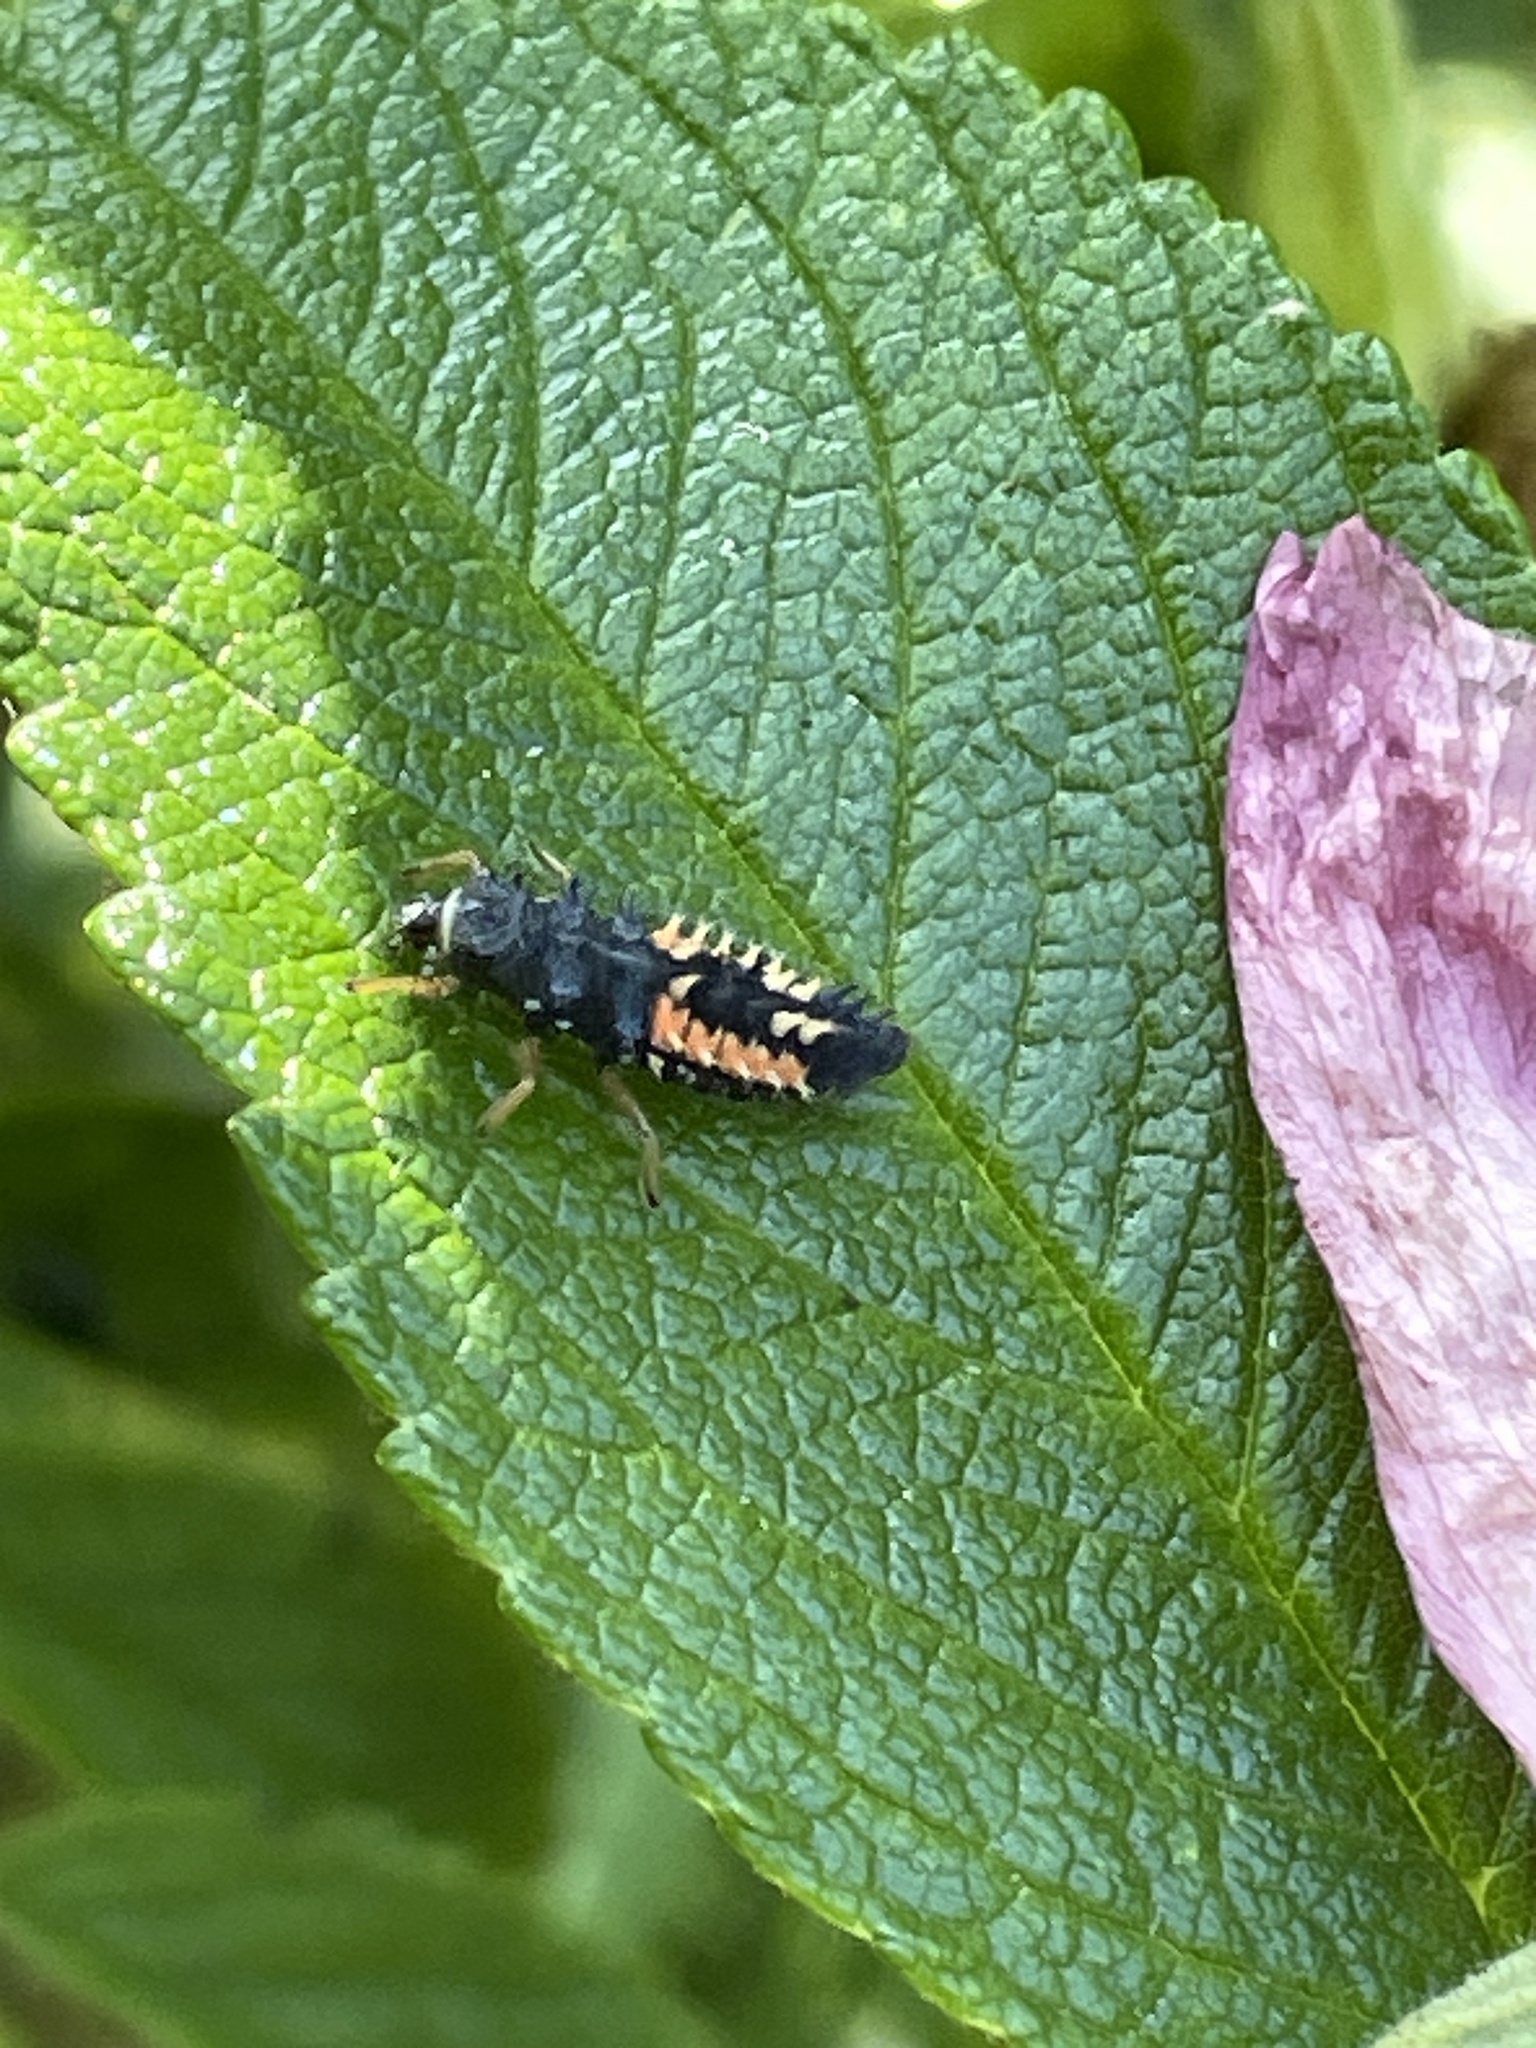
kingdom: Animalia
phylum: Arthropoda
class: Insecta
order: Coleoptera
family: Coccinellidae
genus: Harmonia
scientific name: Harmonia axyridis
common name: Harlequin ladybird
